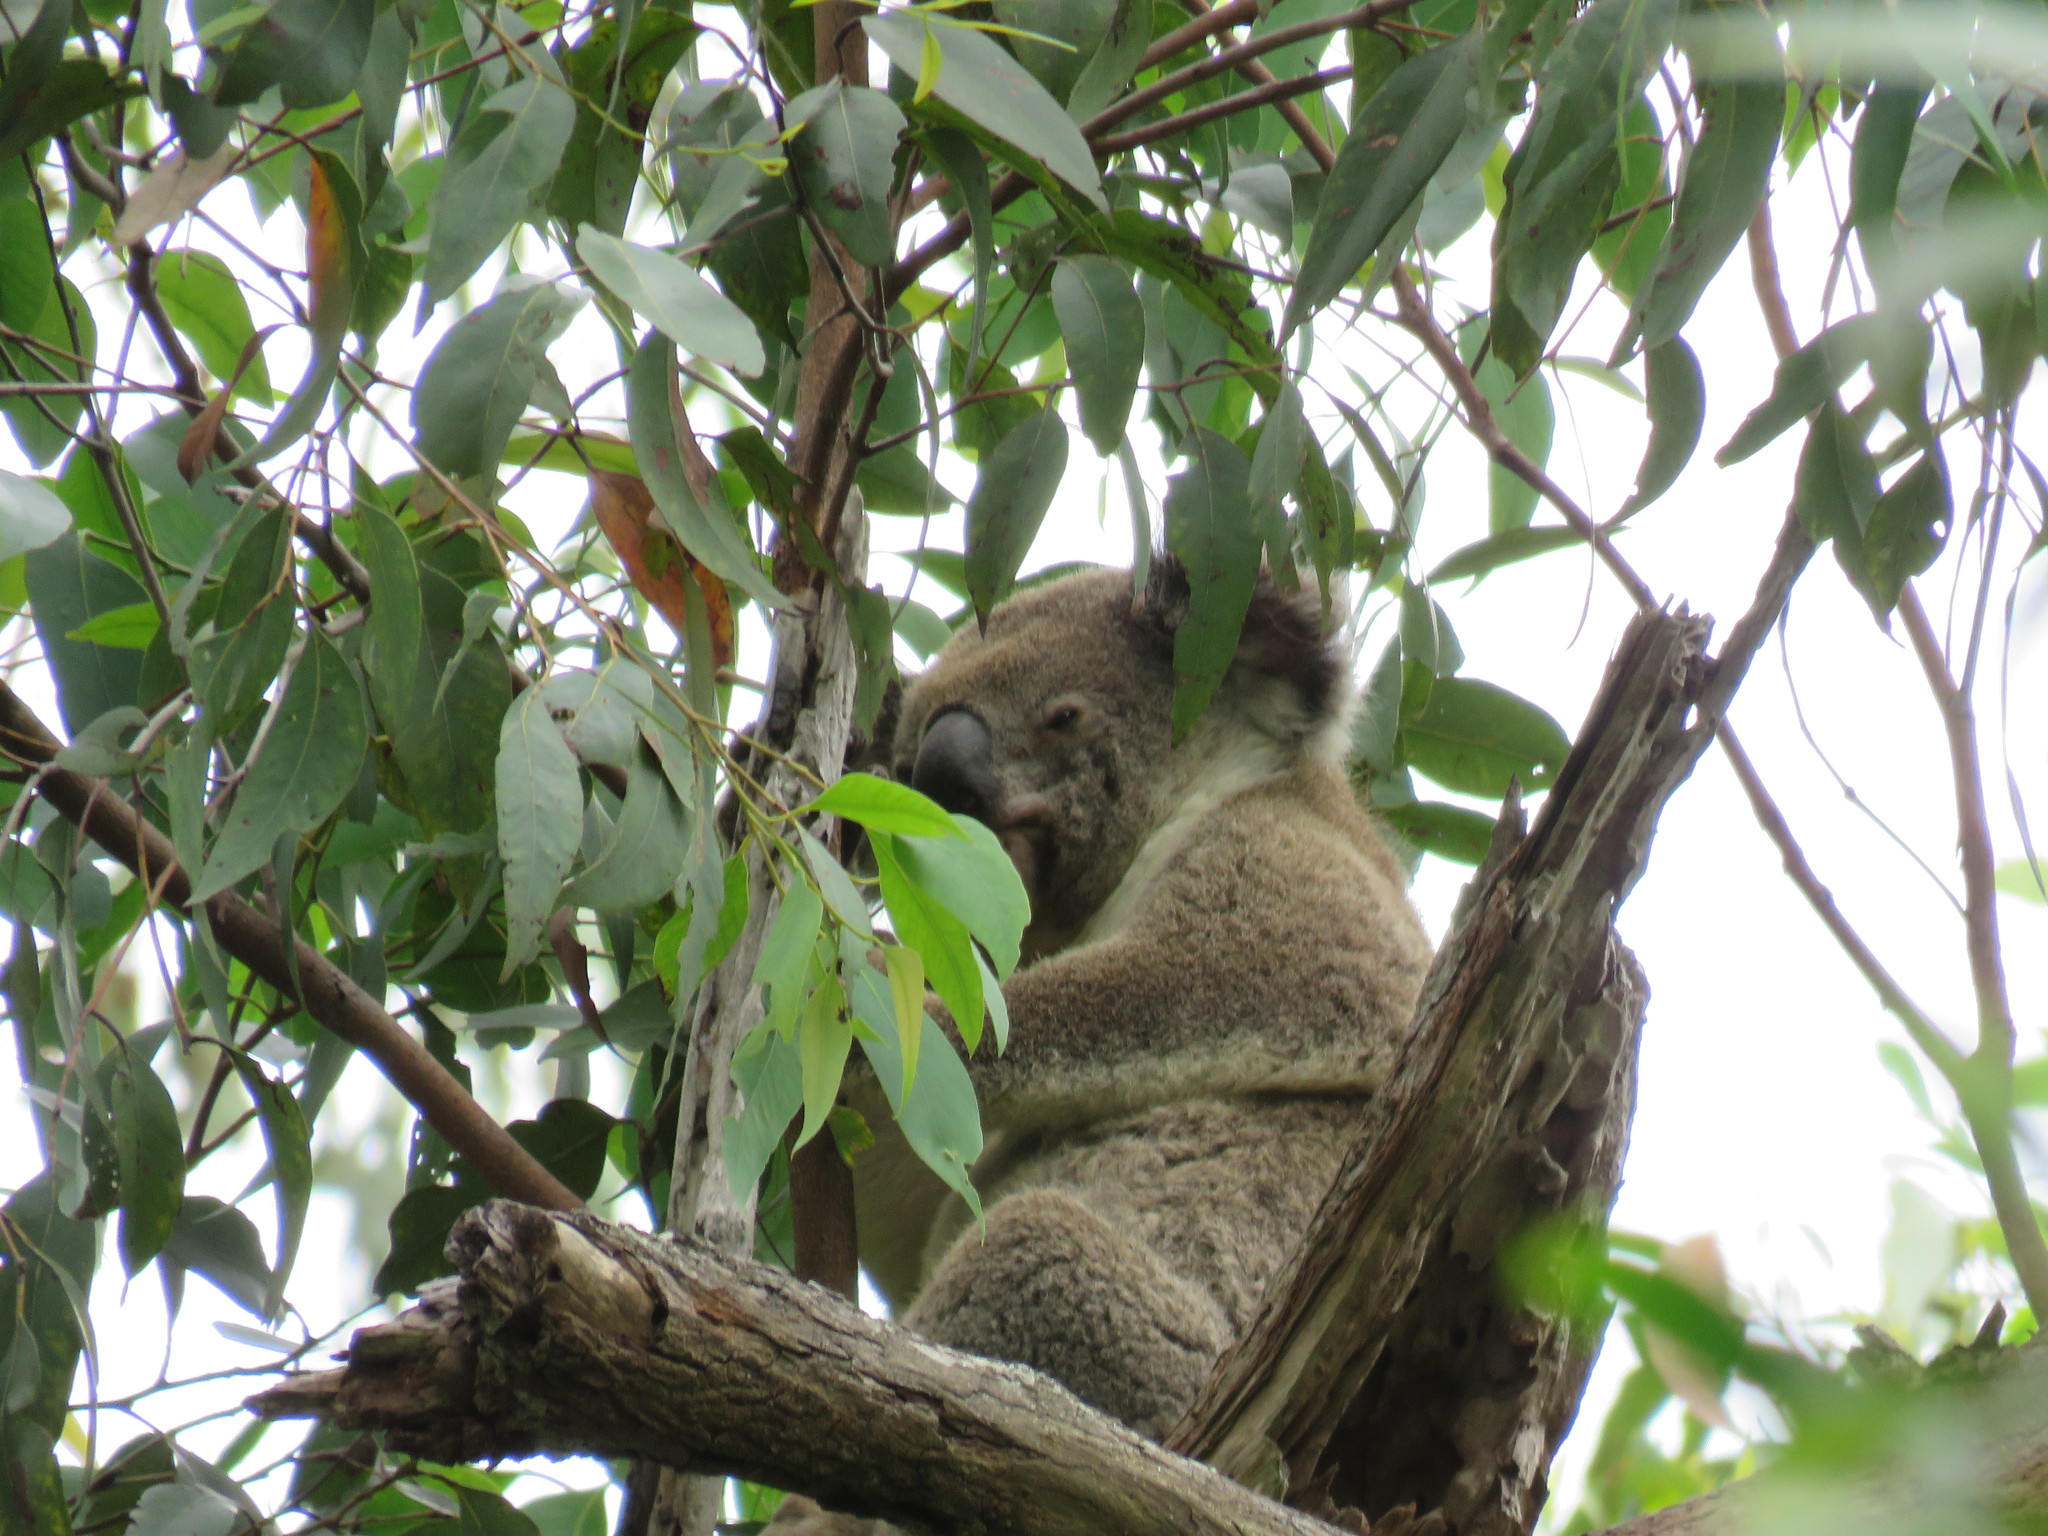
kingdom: Animalia
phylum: Chordata
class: Mammalia
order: Diprotodontia
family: Phascolarctidae
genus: Phascolarctos
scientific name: Phascolarctos cinereus
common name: Koala
